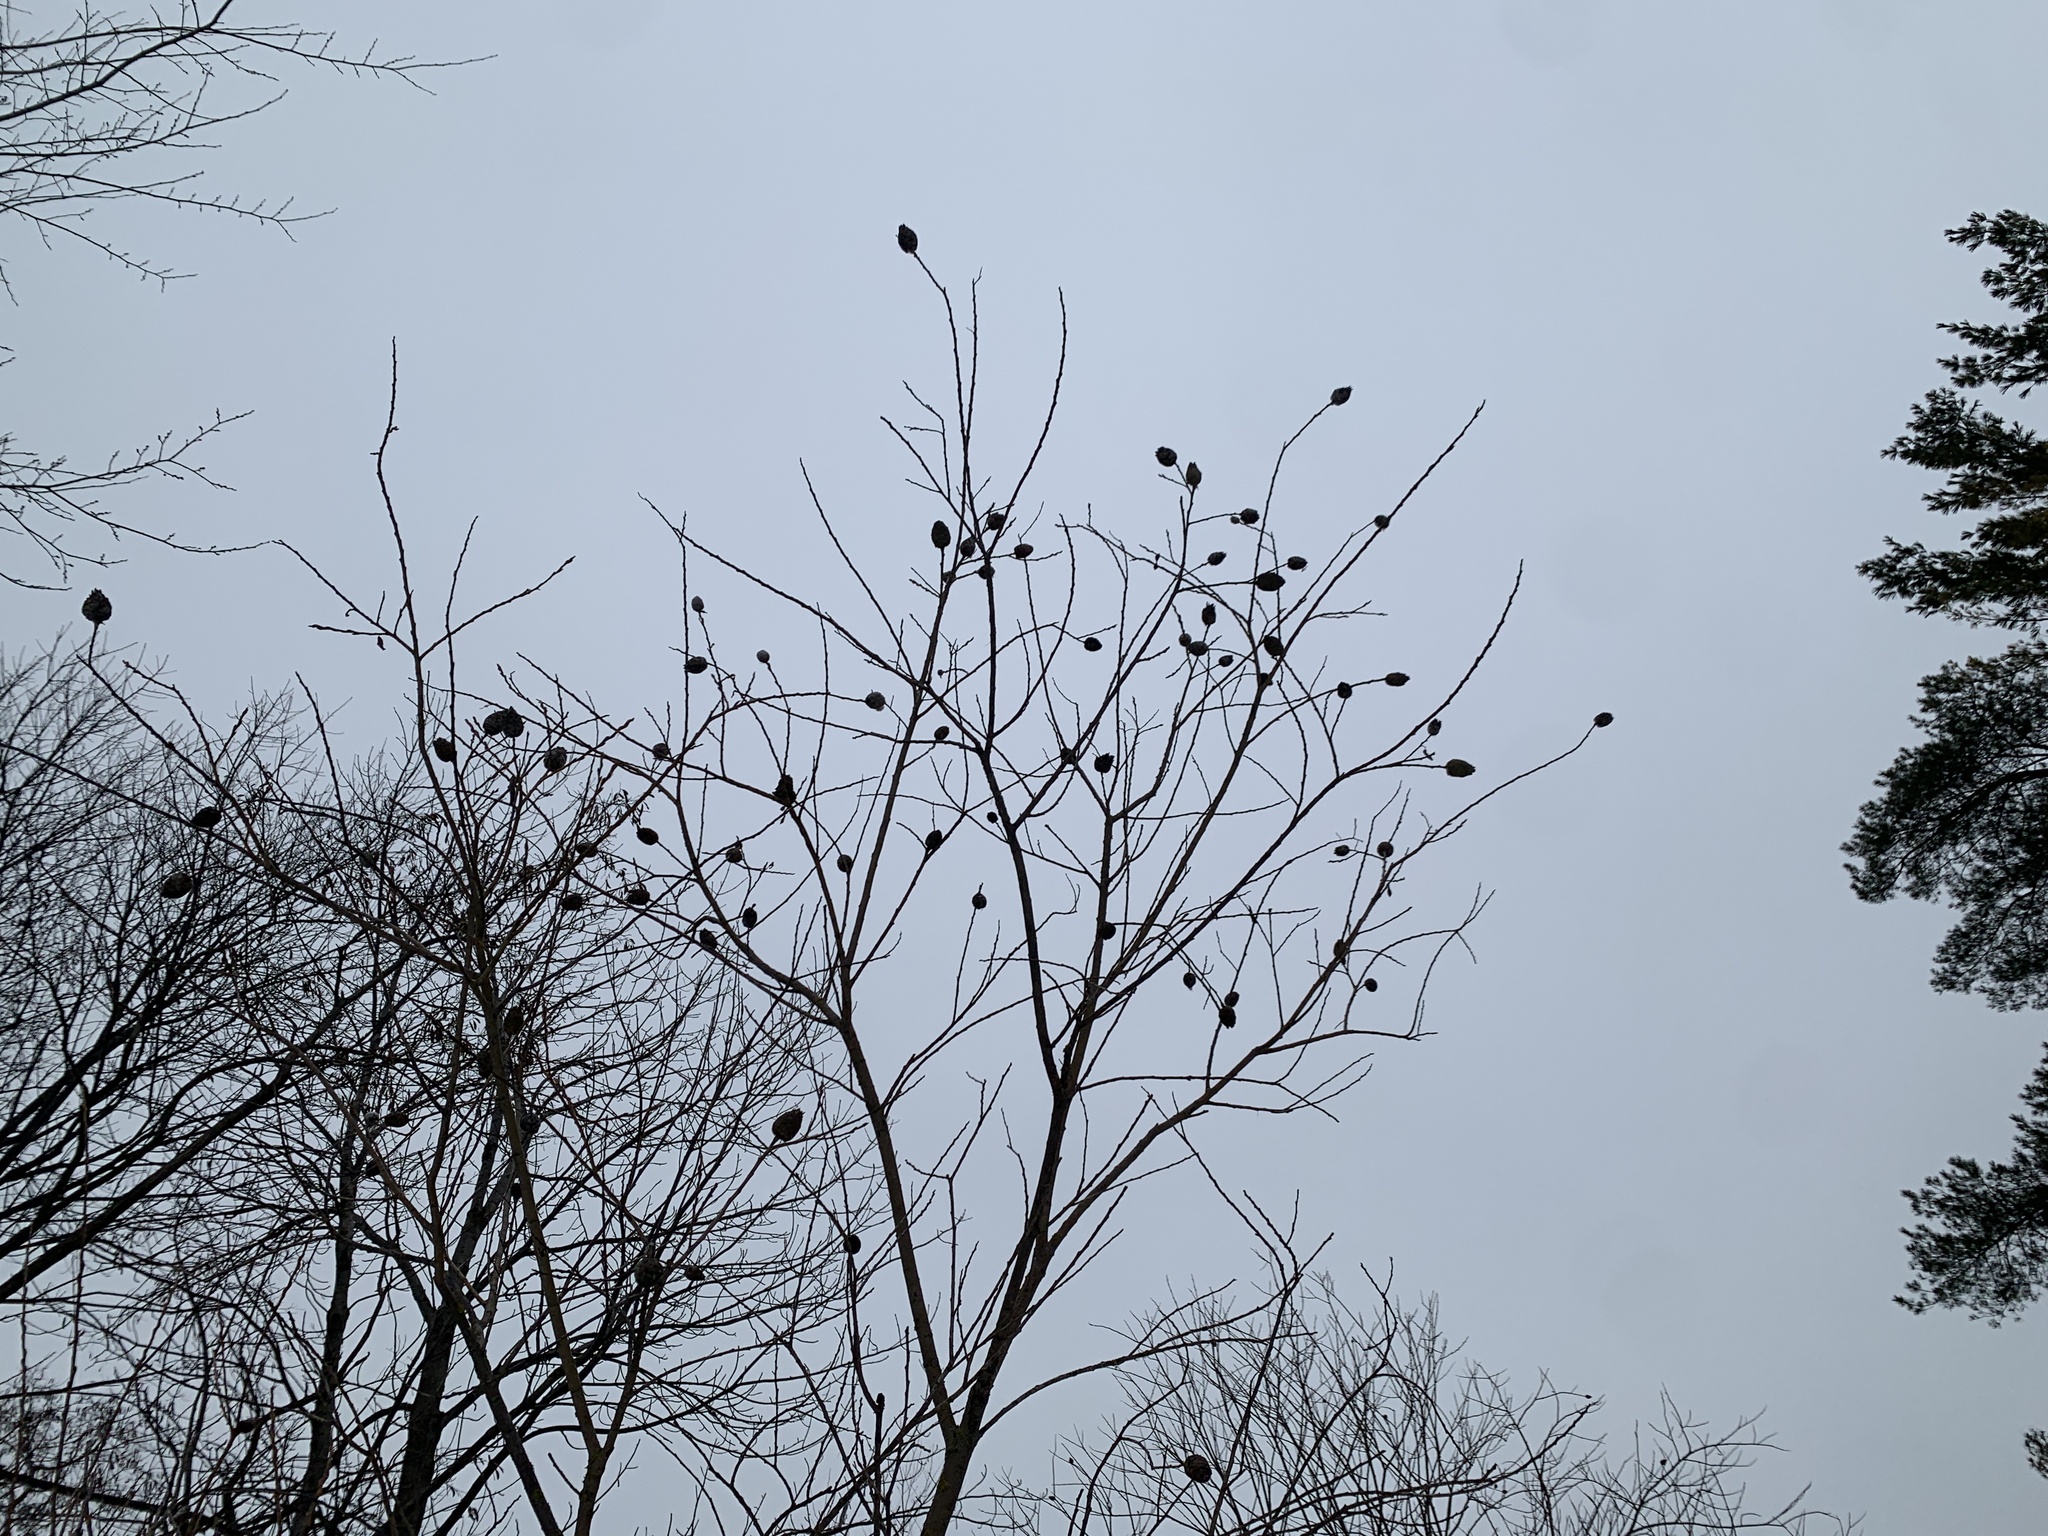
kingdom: Animalia
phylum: Arthropoda
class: Insecta
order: Diptera
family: Cecidomyiidae
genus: Rabdophaga
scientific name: Rabdophaga strobiloides
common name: Willow pinecone gall midge
